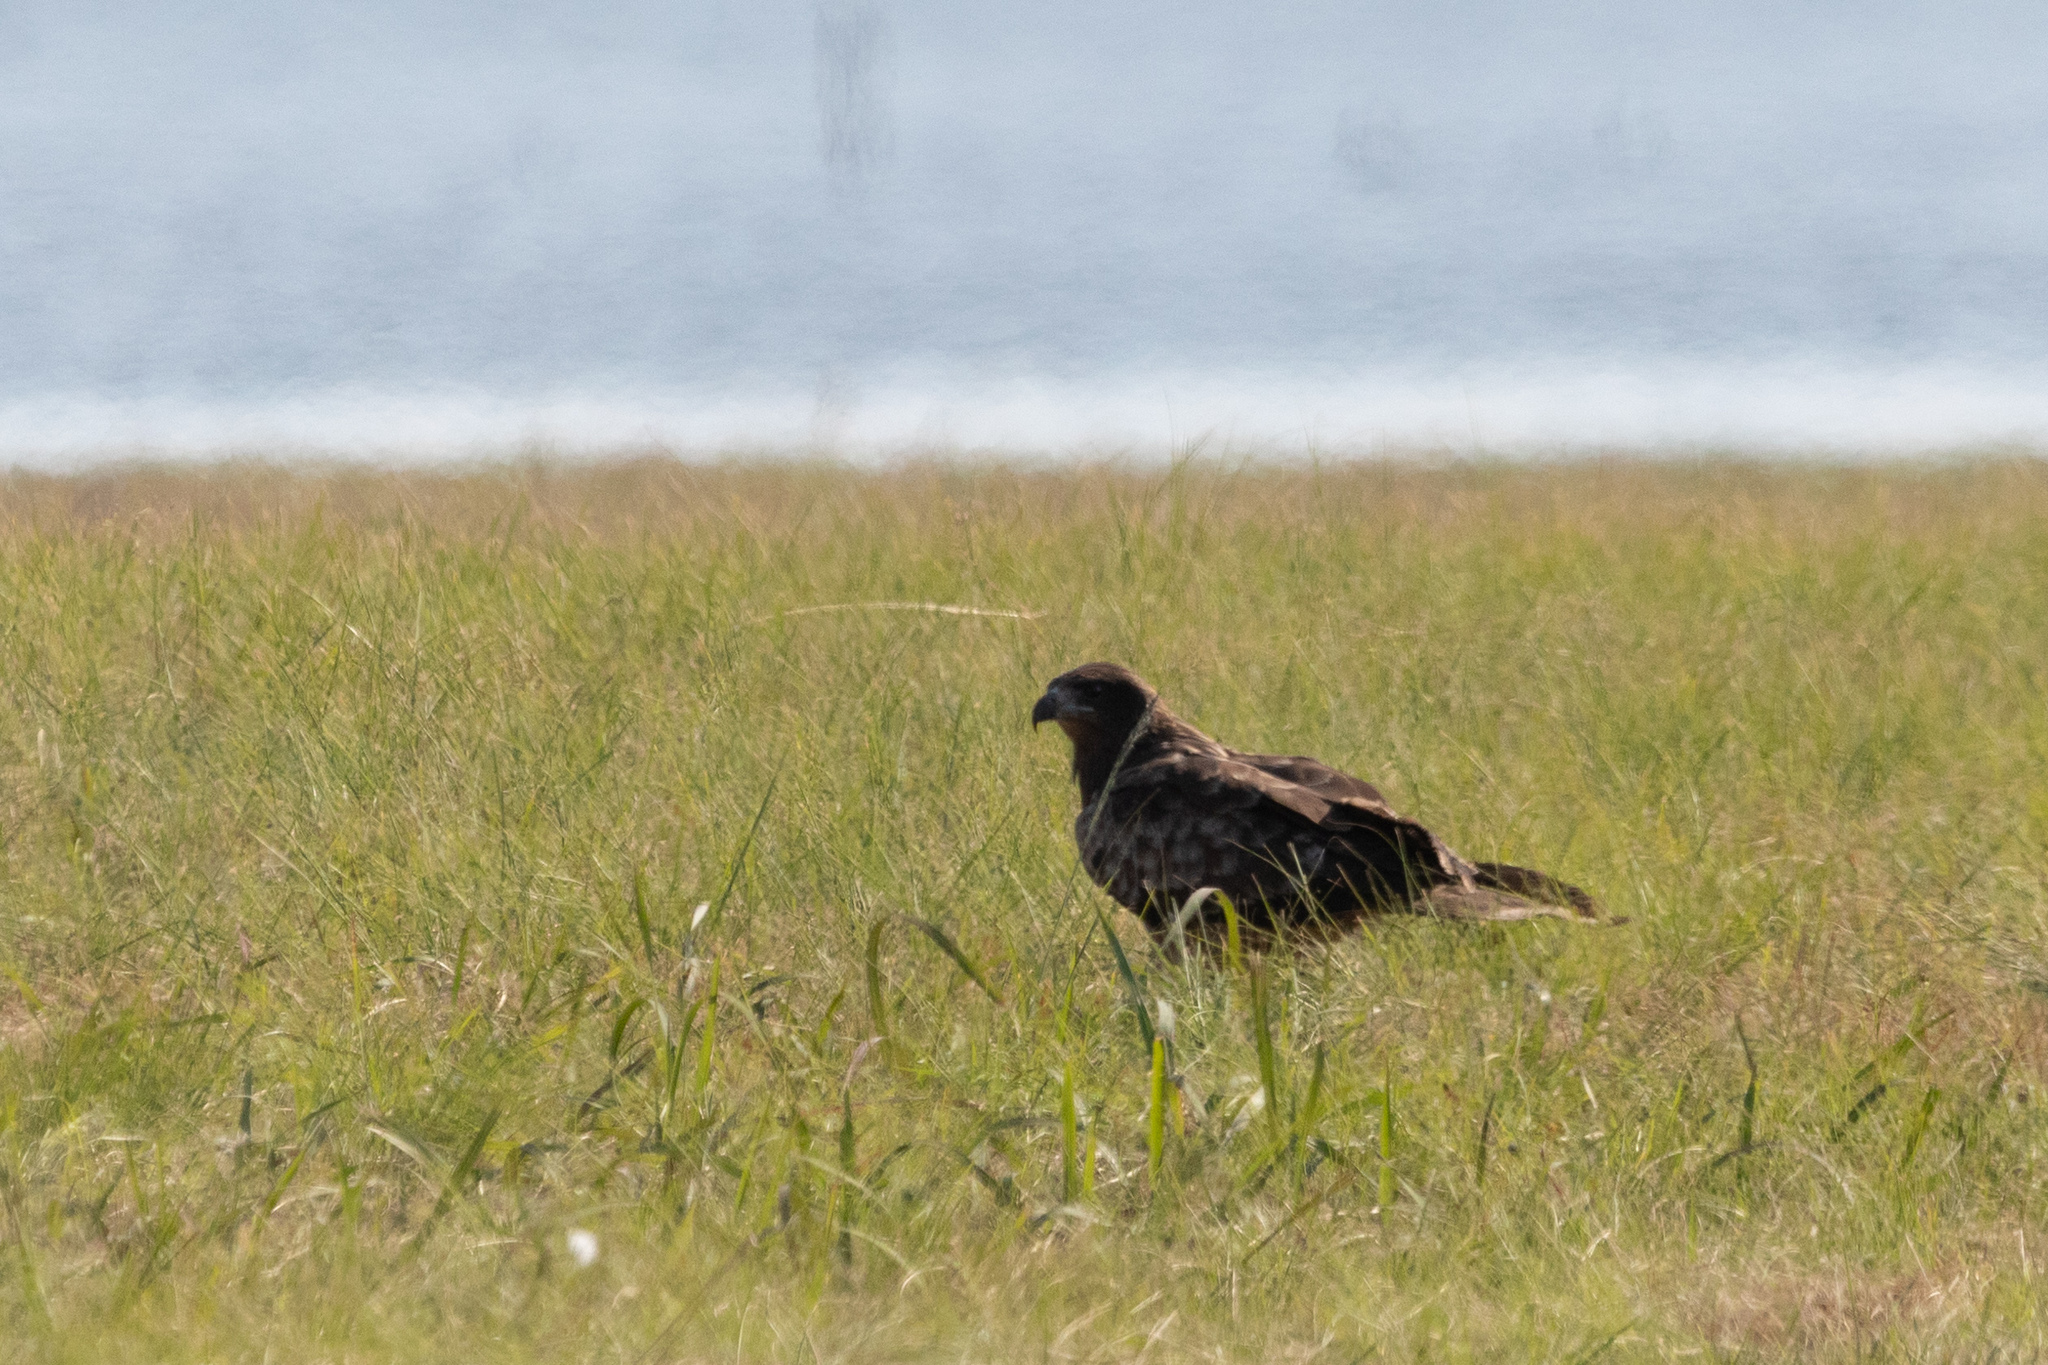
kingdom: Animalia
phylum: Chordata
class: Aves
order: Accipitriformes
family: Accipitridae
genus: Milvus
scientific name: Milvus migrans
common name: Black kite
